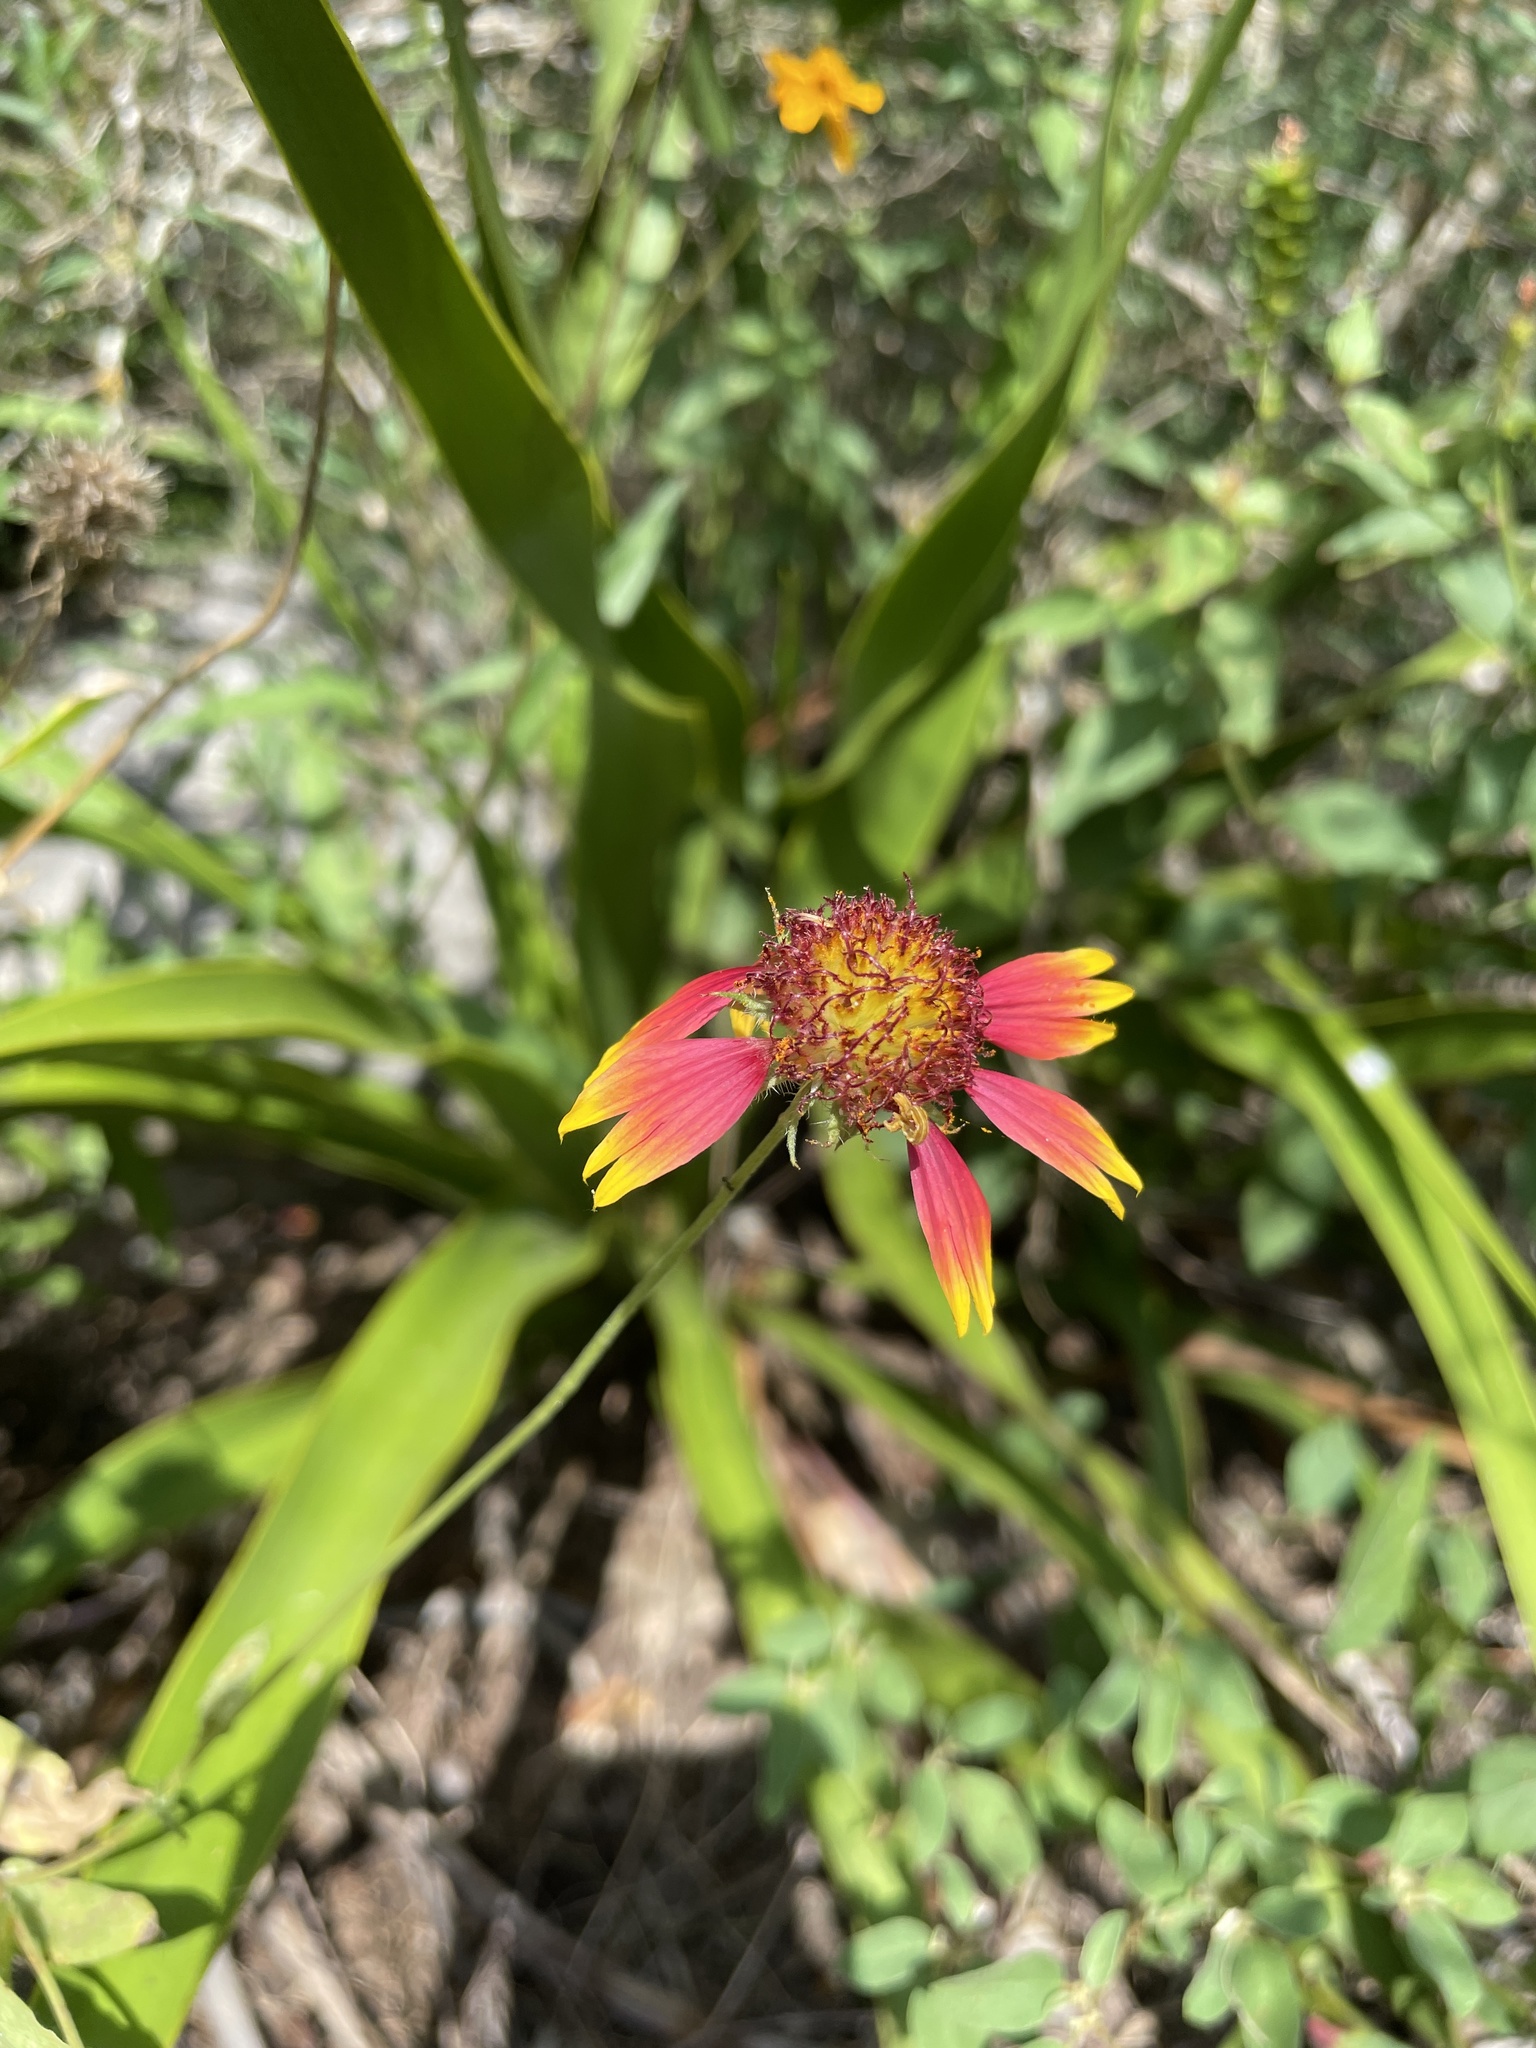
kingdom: Plantae
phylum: Tracheophyta
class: Magnoliopsida
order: Asterales
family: Asteraceae
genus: Gaillardia
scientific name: Gaillardia pulchella
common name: Firewheel
